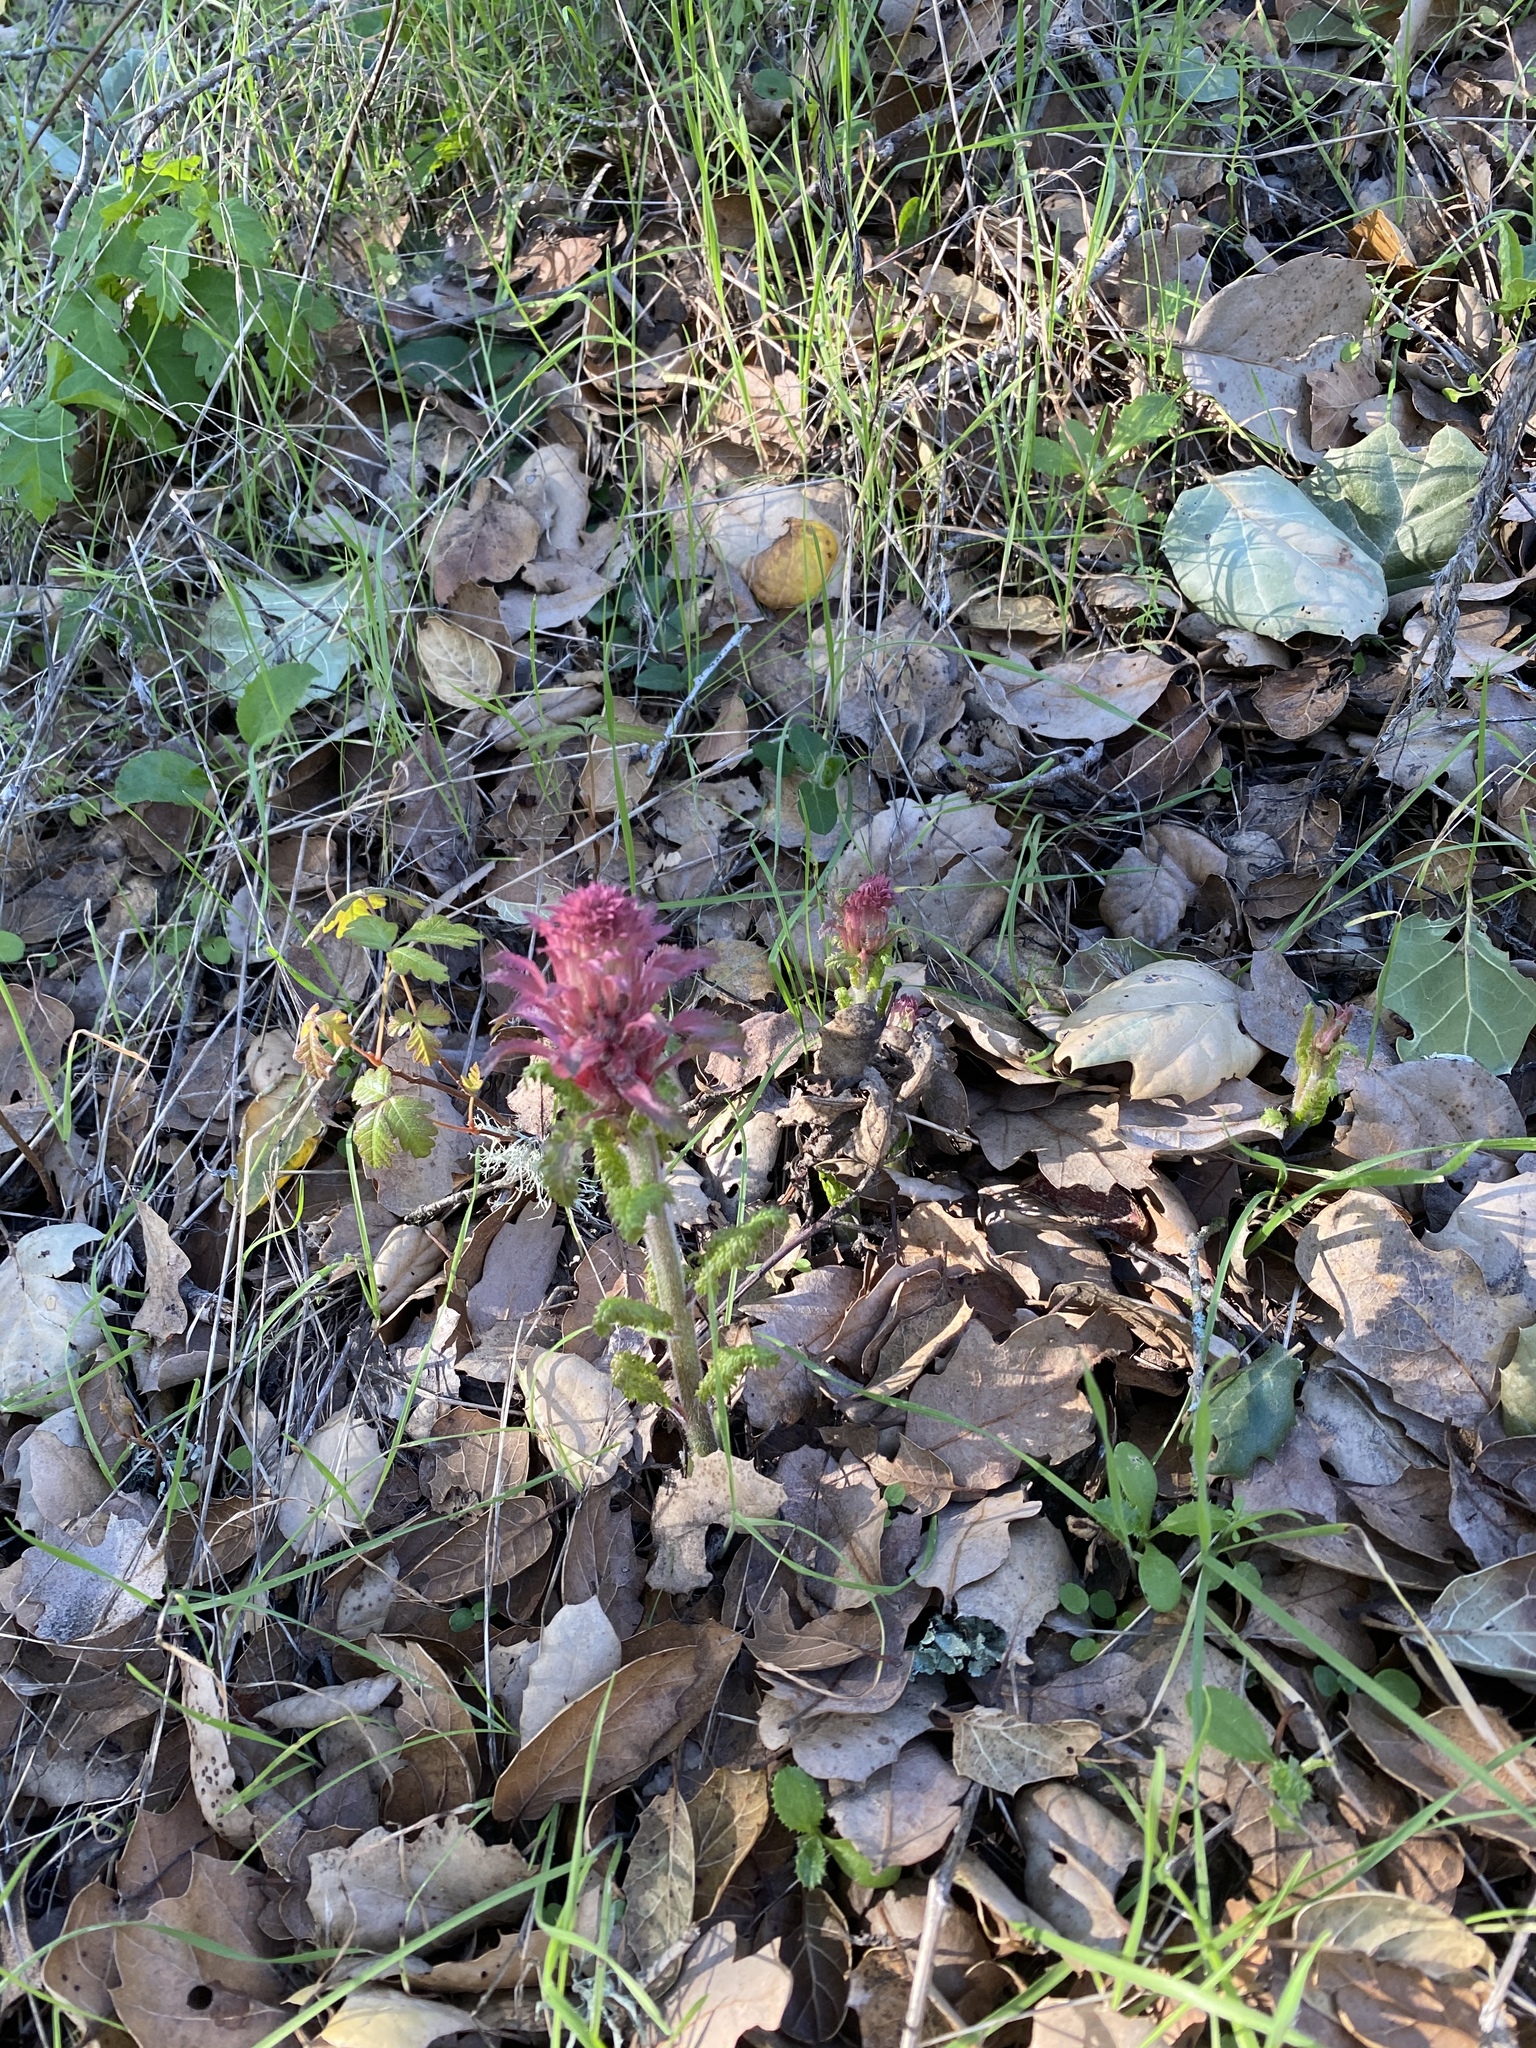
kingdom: Plantae
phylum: Tracheophyta
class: Magnoliopsida
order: Lamiales
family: Orobanchaceae
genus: Pedicularis
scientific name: Pedicularis densiflora
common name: Indian warrior
